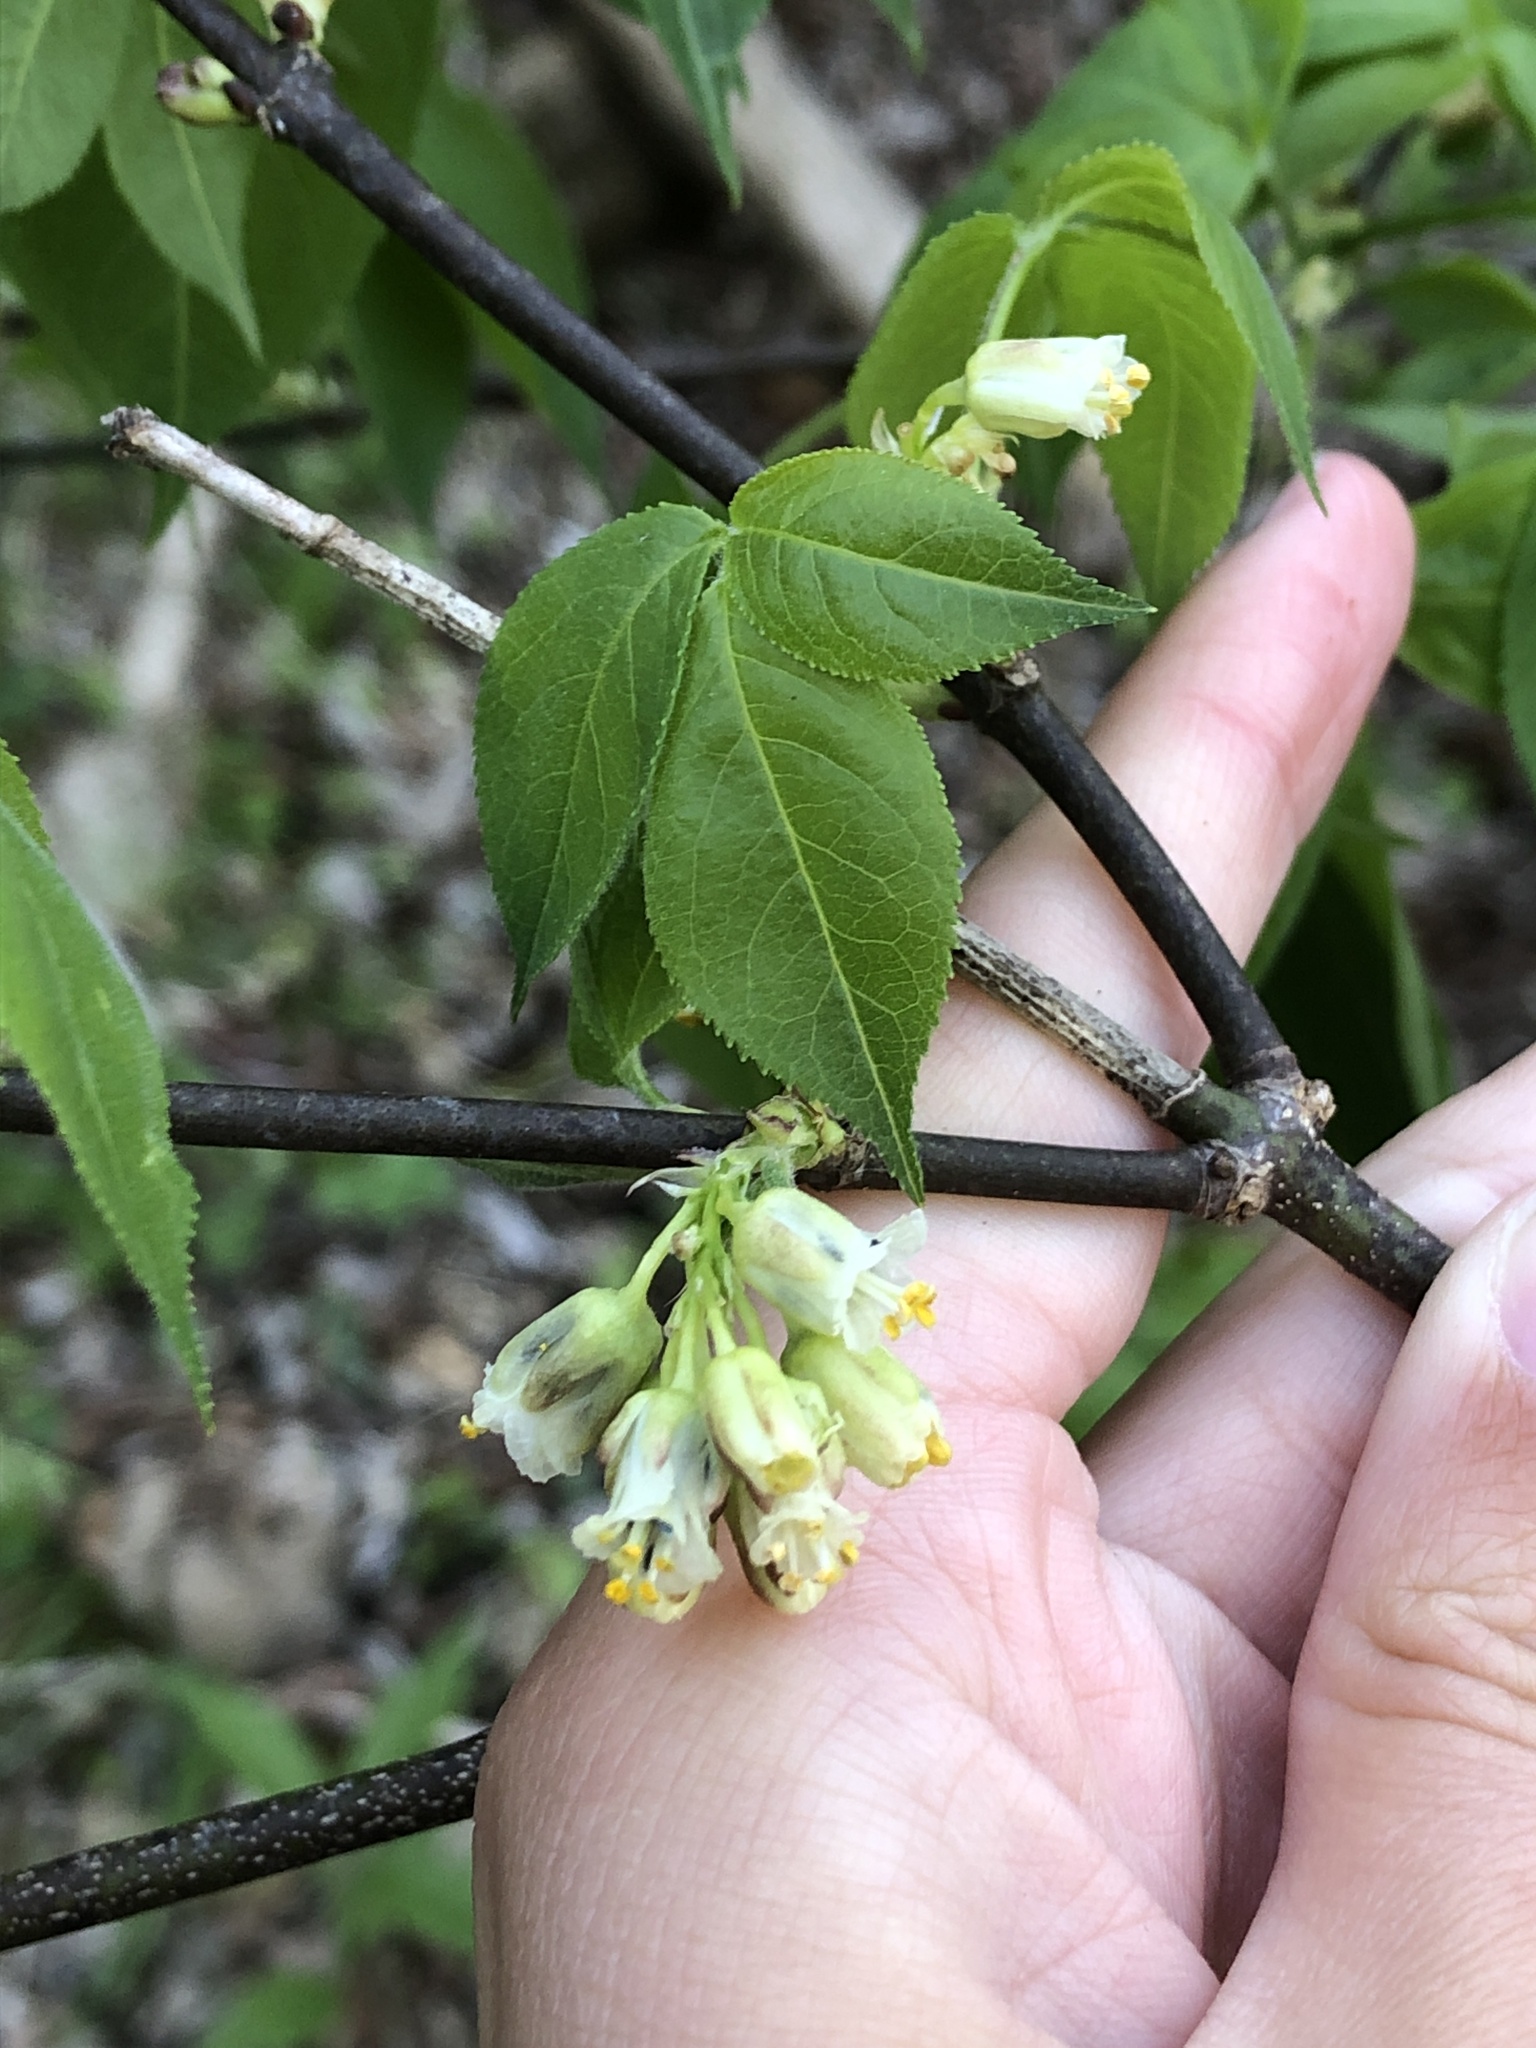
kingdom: Plantae
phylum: Tracheophyta
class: Magnoliopsida
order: Crossosomatales
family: Staphyleaceae
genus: Staphylea
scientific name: Staphylea trifolia
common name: American bladdernut
